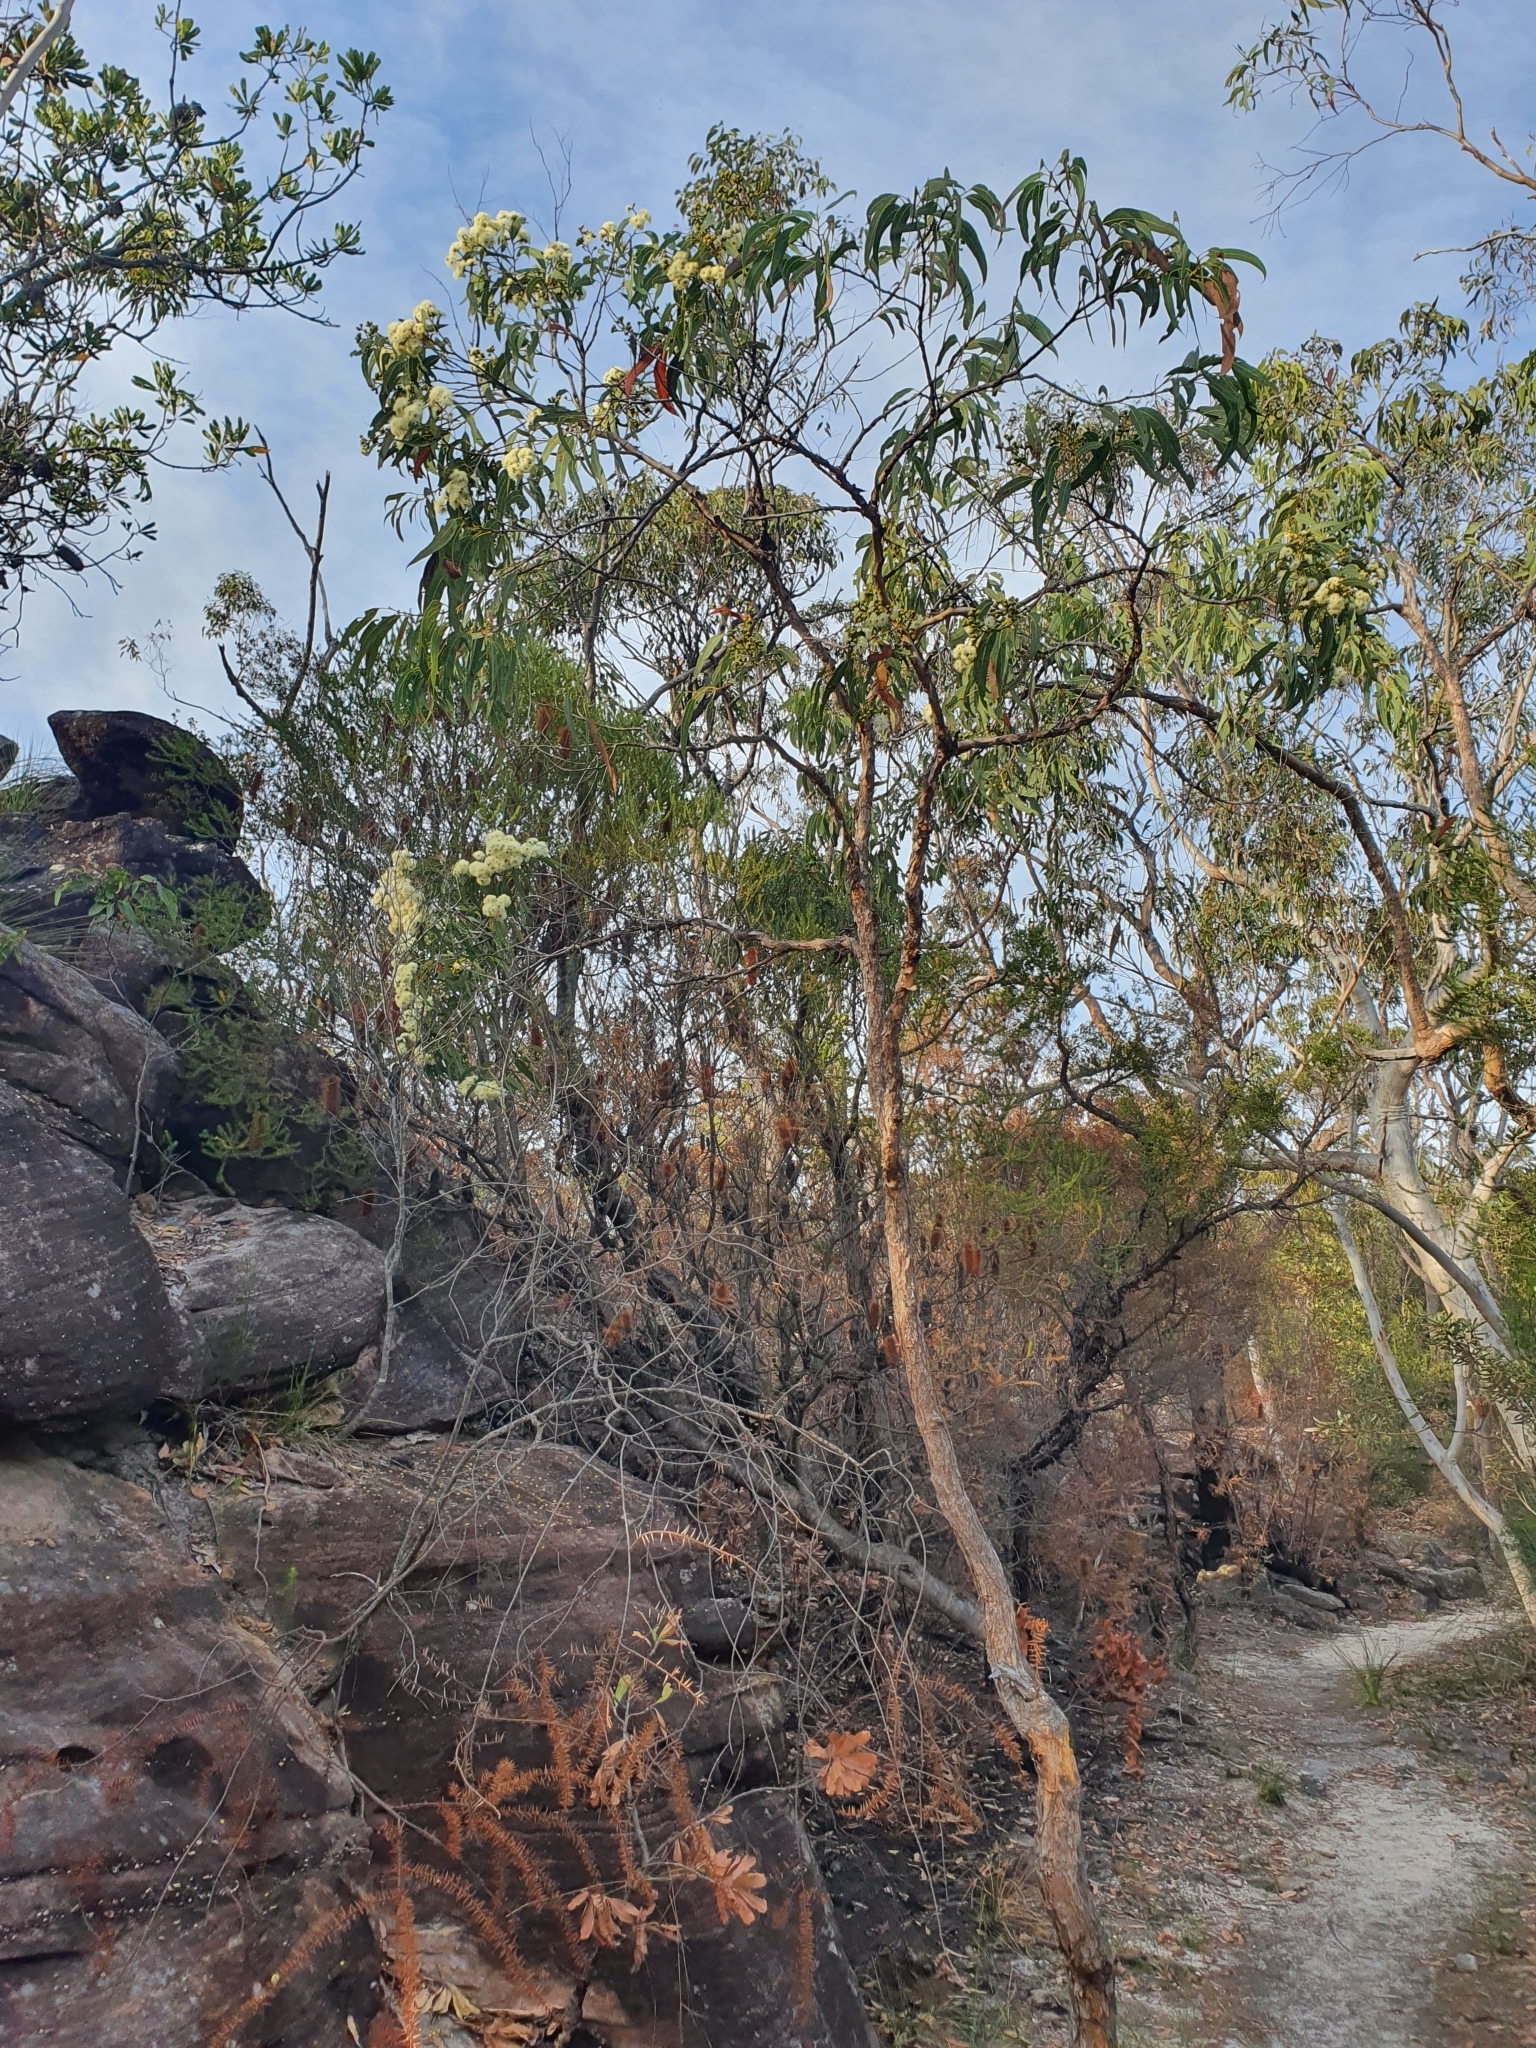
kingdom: Plantae
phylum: Tracheophyta
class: Magnoliopsida
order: Myrtales
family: Myrtaceae
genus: Corymbia
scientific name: Corymbia eximia
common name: Yellow bloodwood
